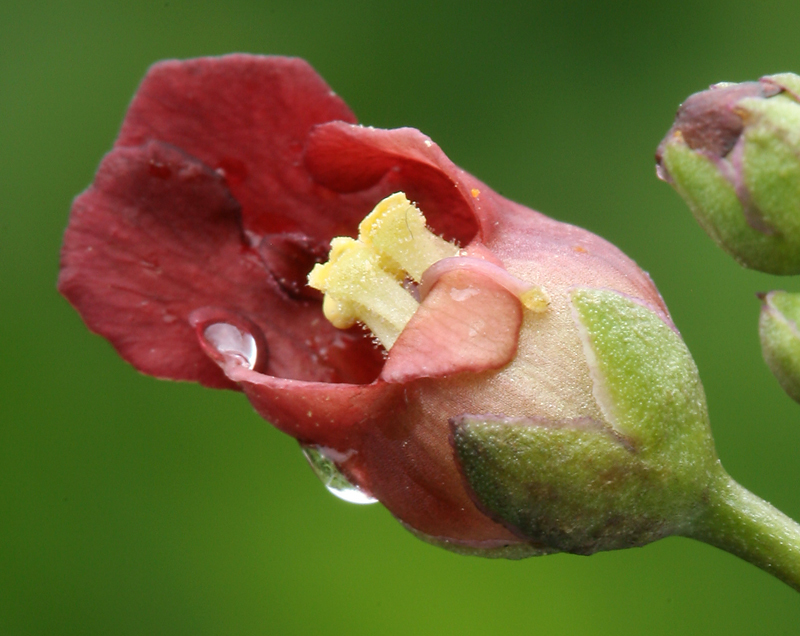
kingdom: Plantae
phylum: Tracheophyta
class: Magnoliopsida
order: Lamiales
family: Scrophulariaceae
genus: Scrophularia
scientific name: Scrophularia californica
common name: California figwort
